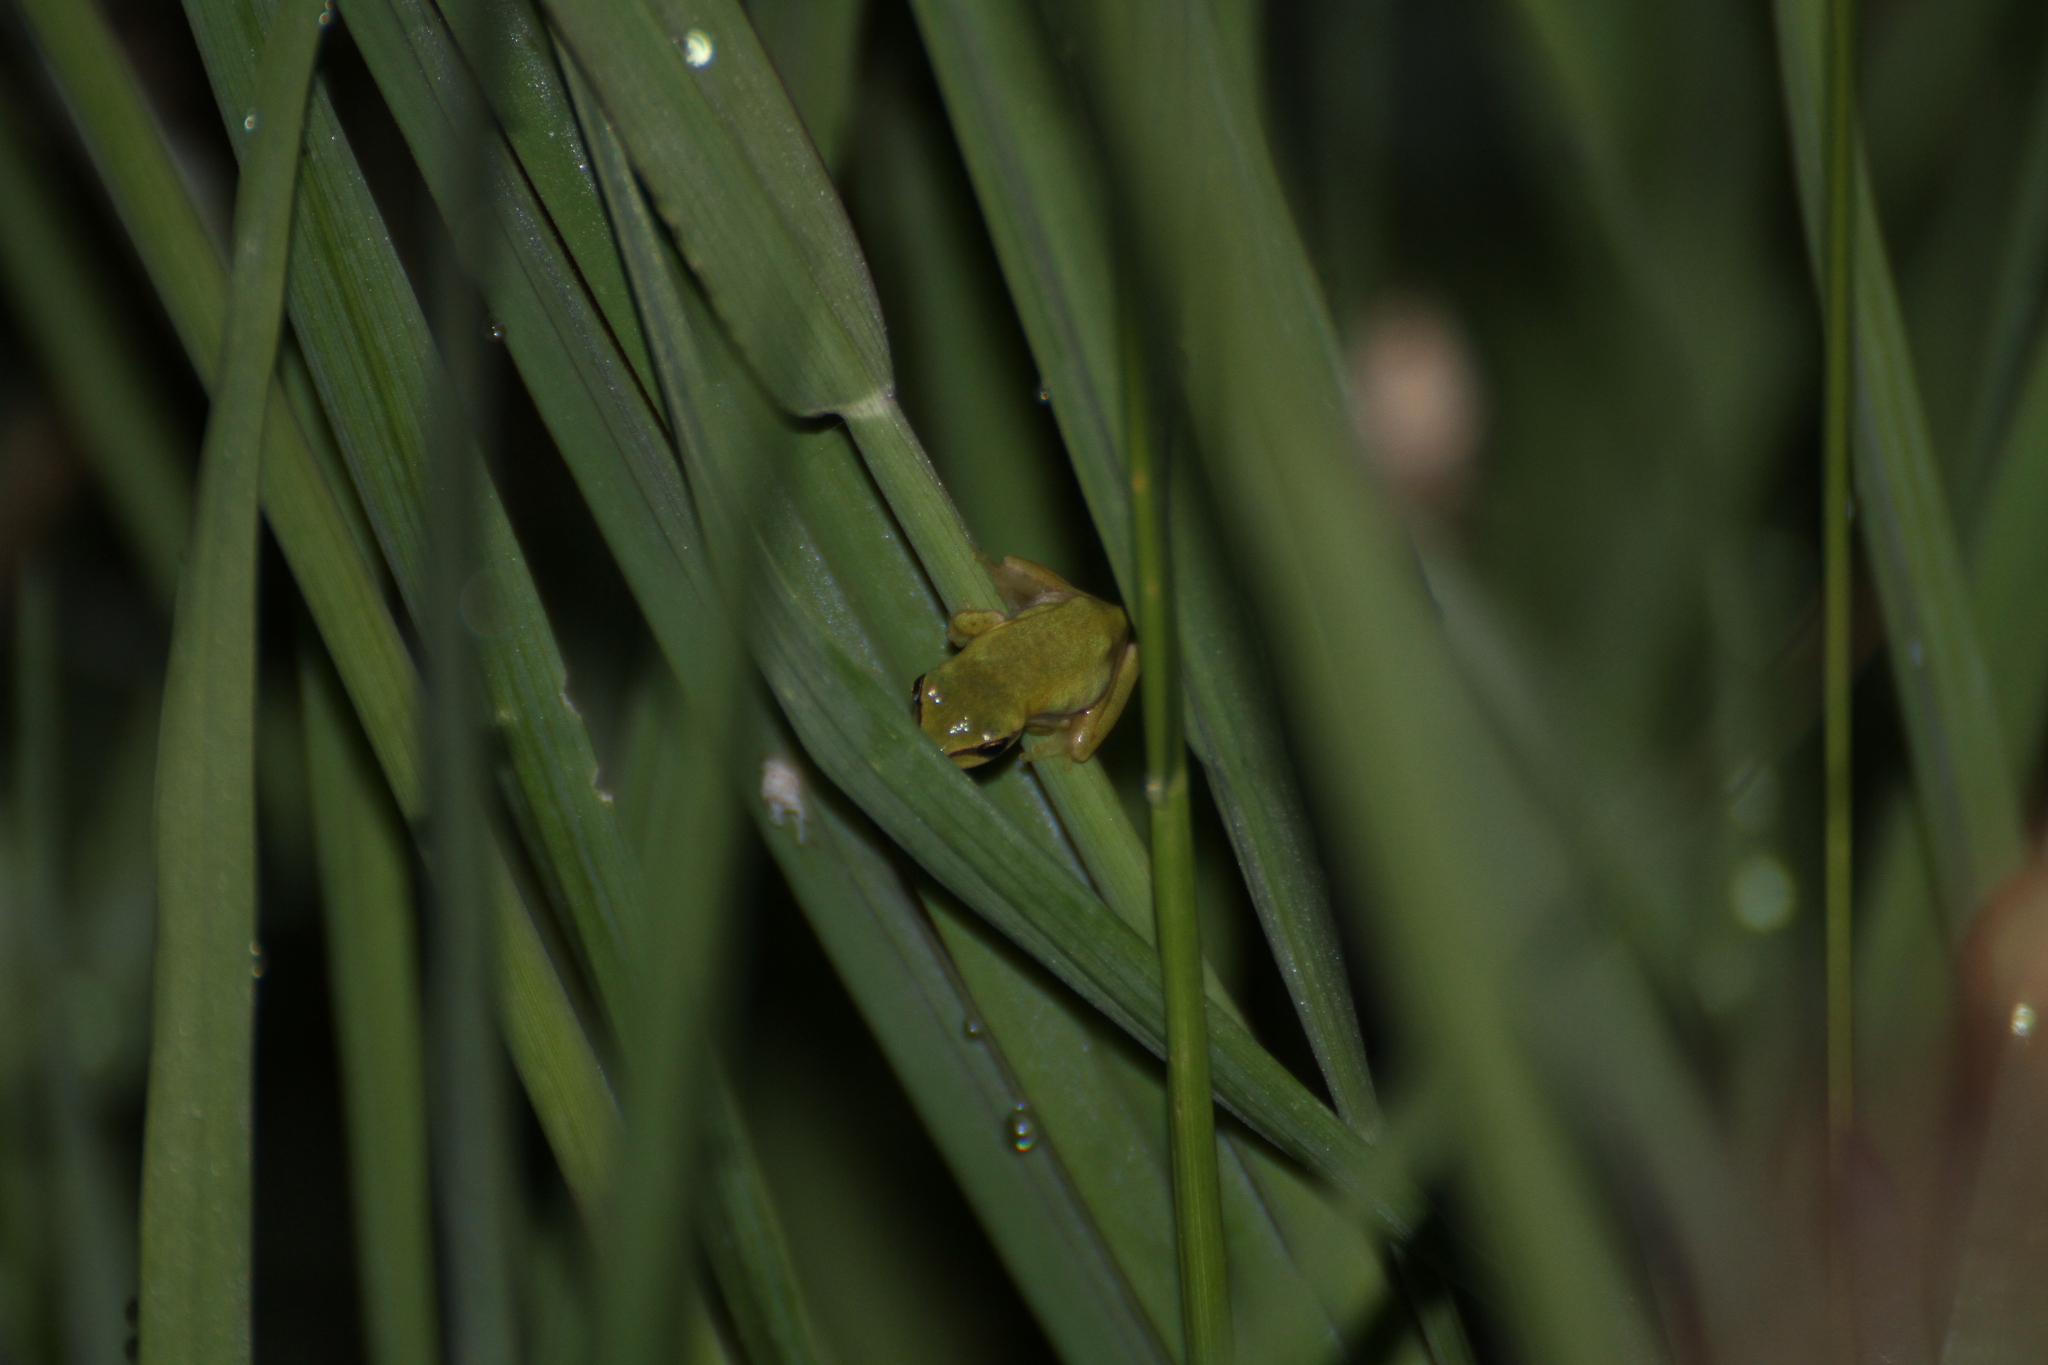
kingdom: Animalia
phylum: Chordata
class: Amphibia
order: Anura
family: Hylidae
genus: Hyla
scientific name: Hyla meridionalis
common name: Stripeless tree frog
